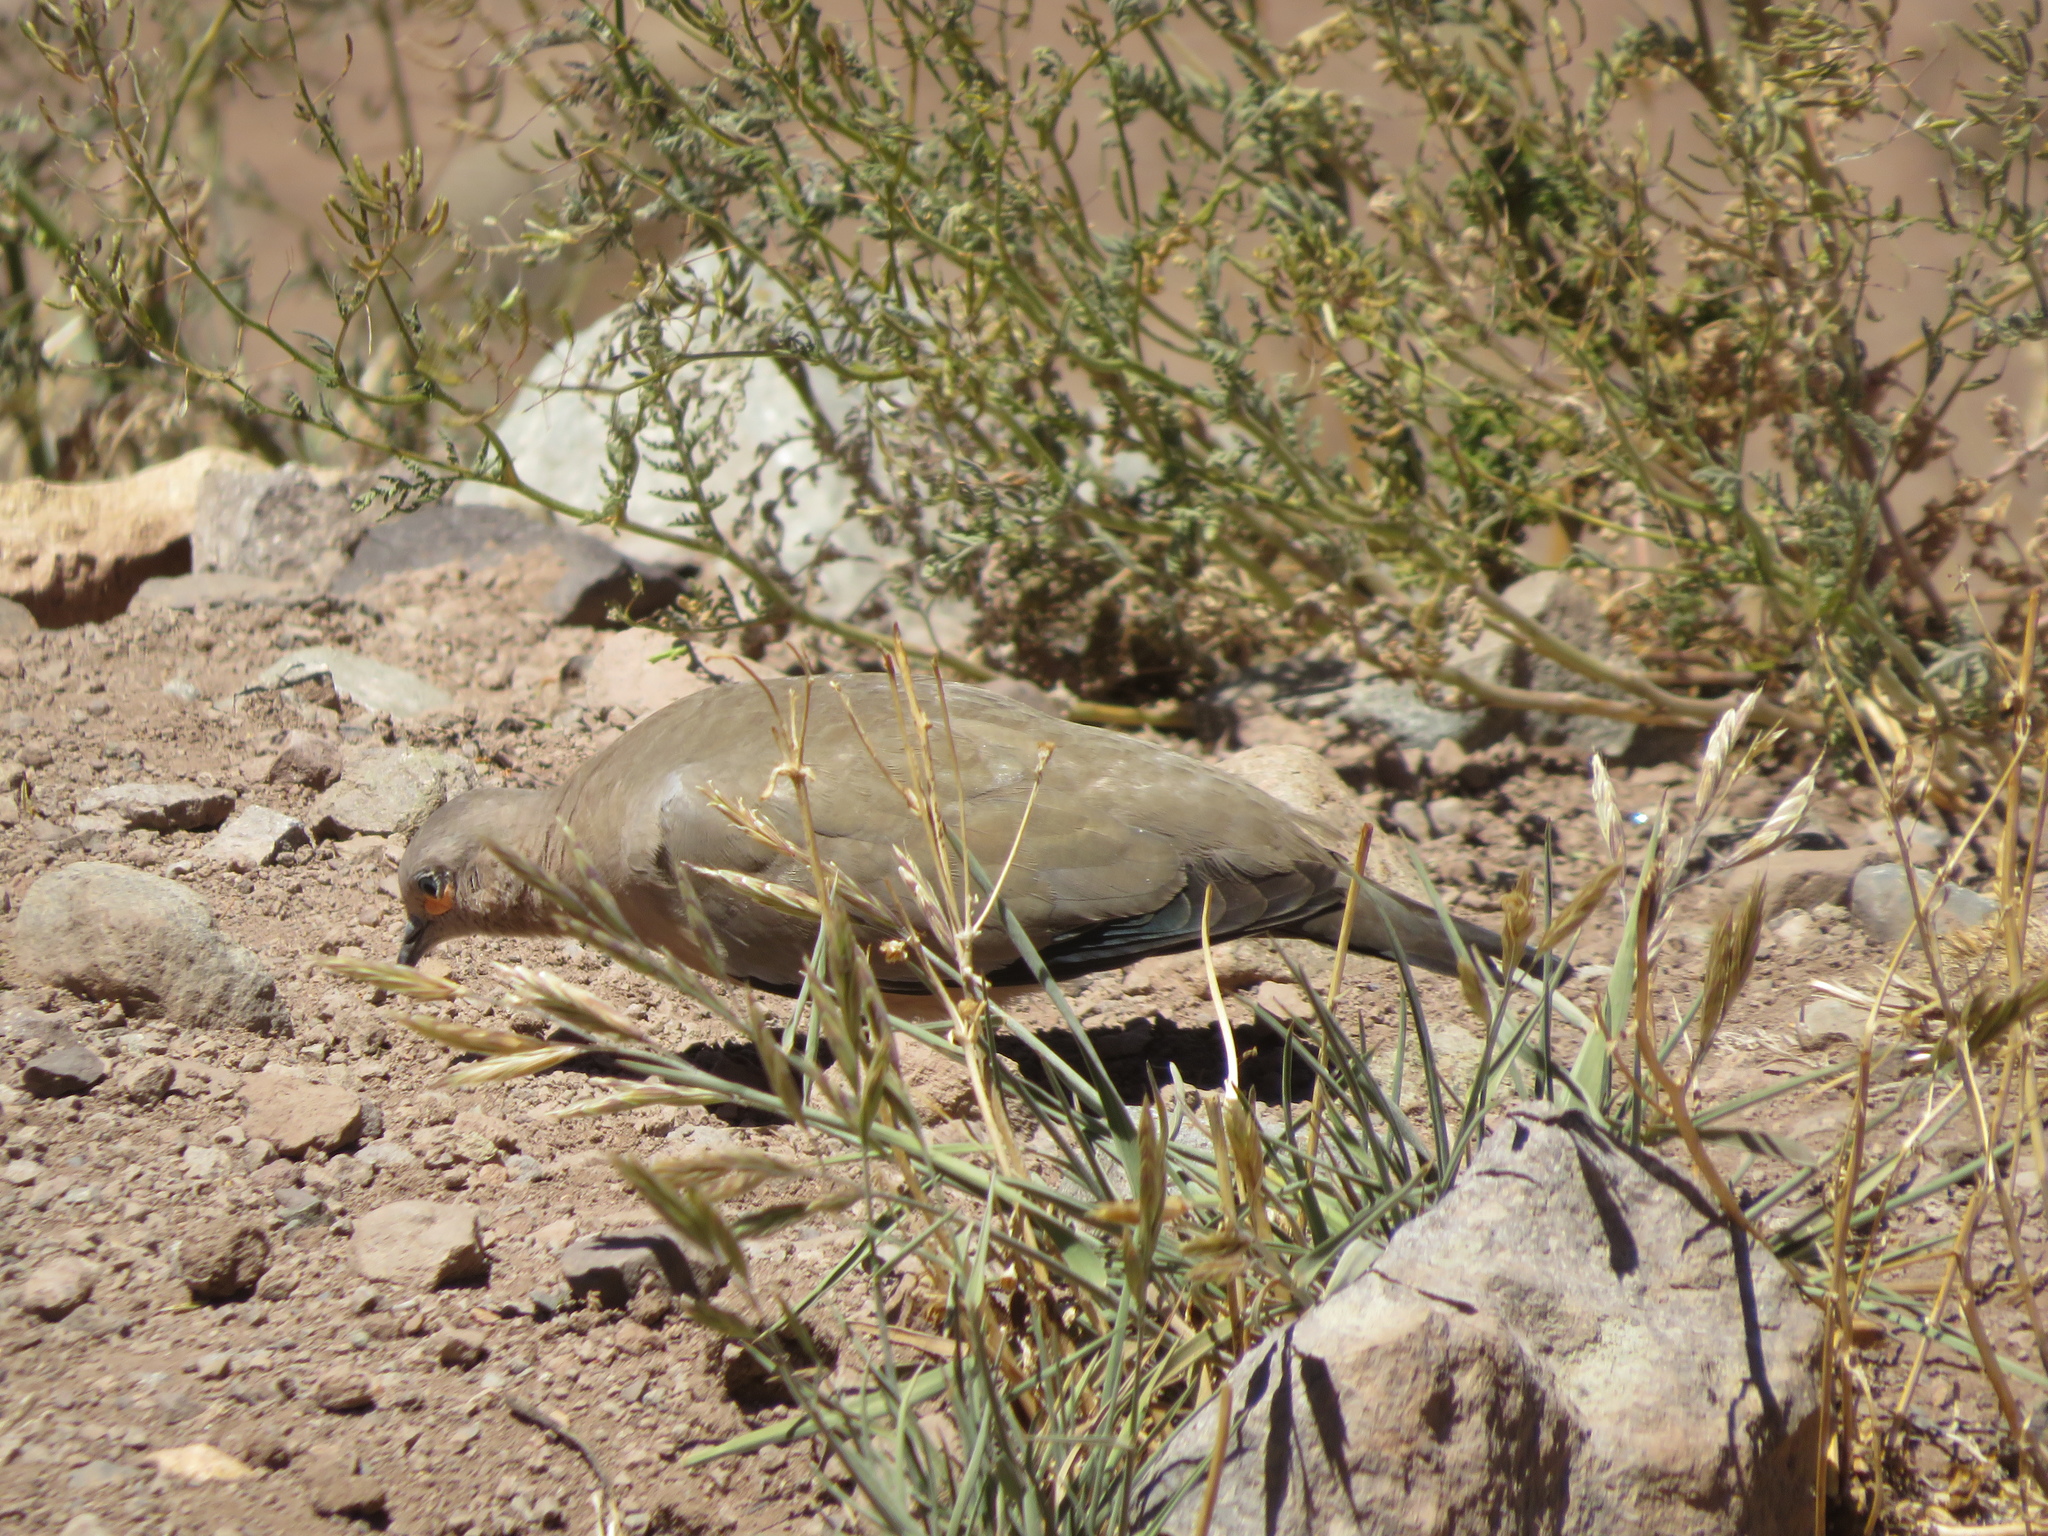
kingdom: Animalia
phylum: Chordata
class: Aves
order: Columbiformes
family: Columbidae
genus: Metriopelia
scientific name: Metriopelia melanoptera
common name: Black-winged ground dove
